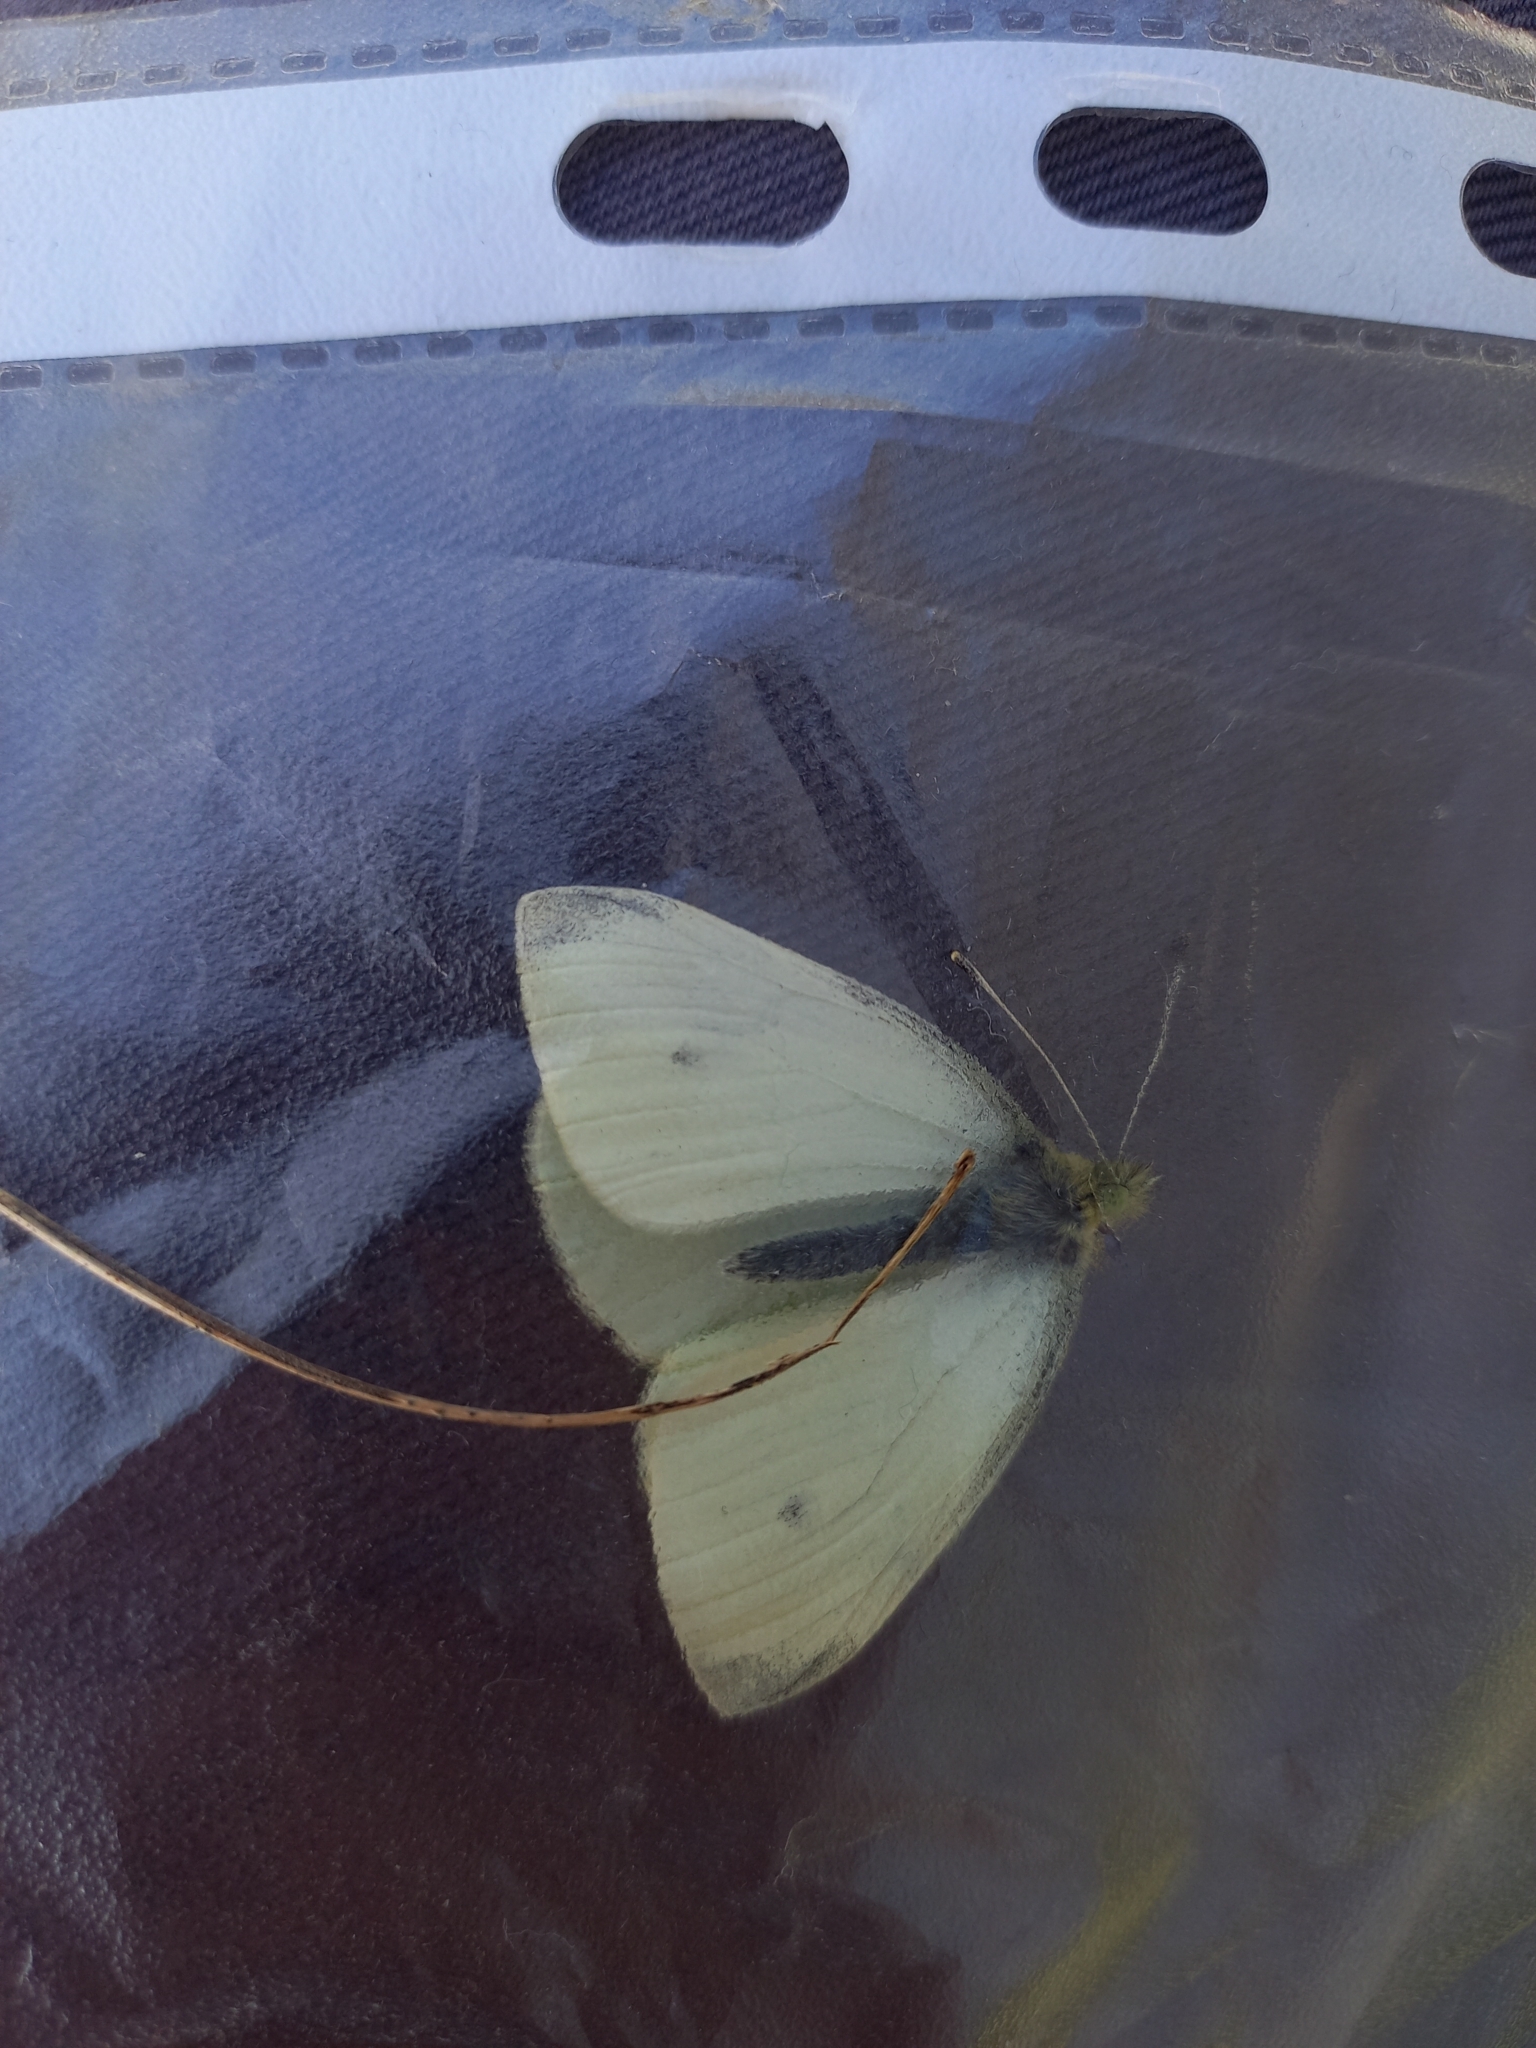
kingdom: Animalia
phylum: Arthropoda
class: Insecta
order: Lepidoptera
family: Pieridae
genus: Pieris
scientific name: Pieris rapae
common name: Small white
